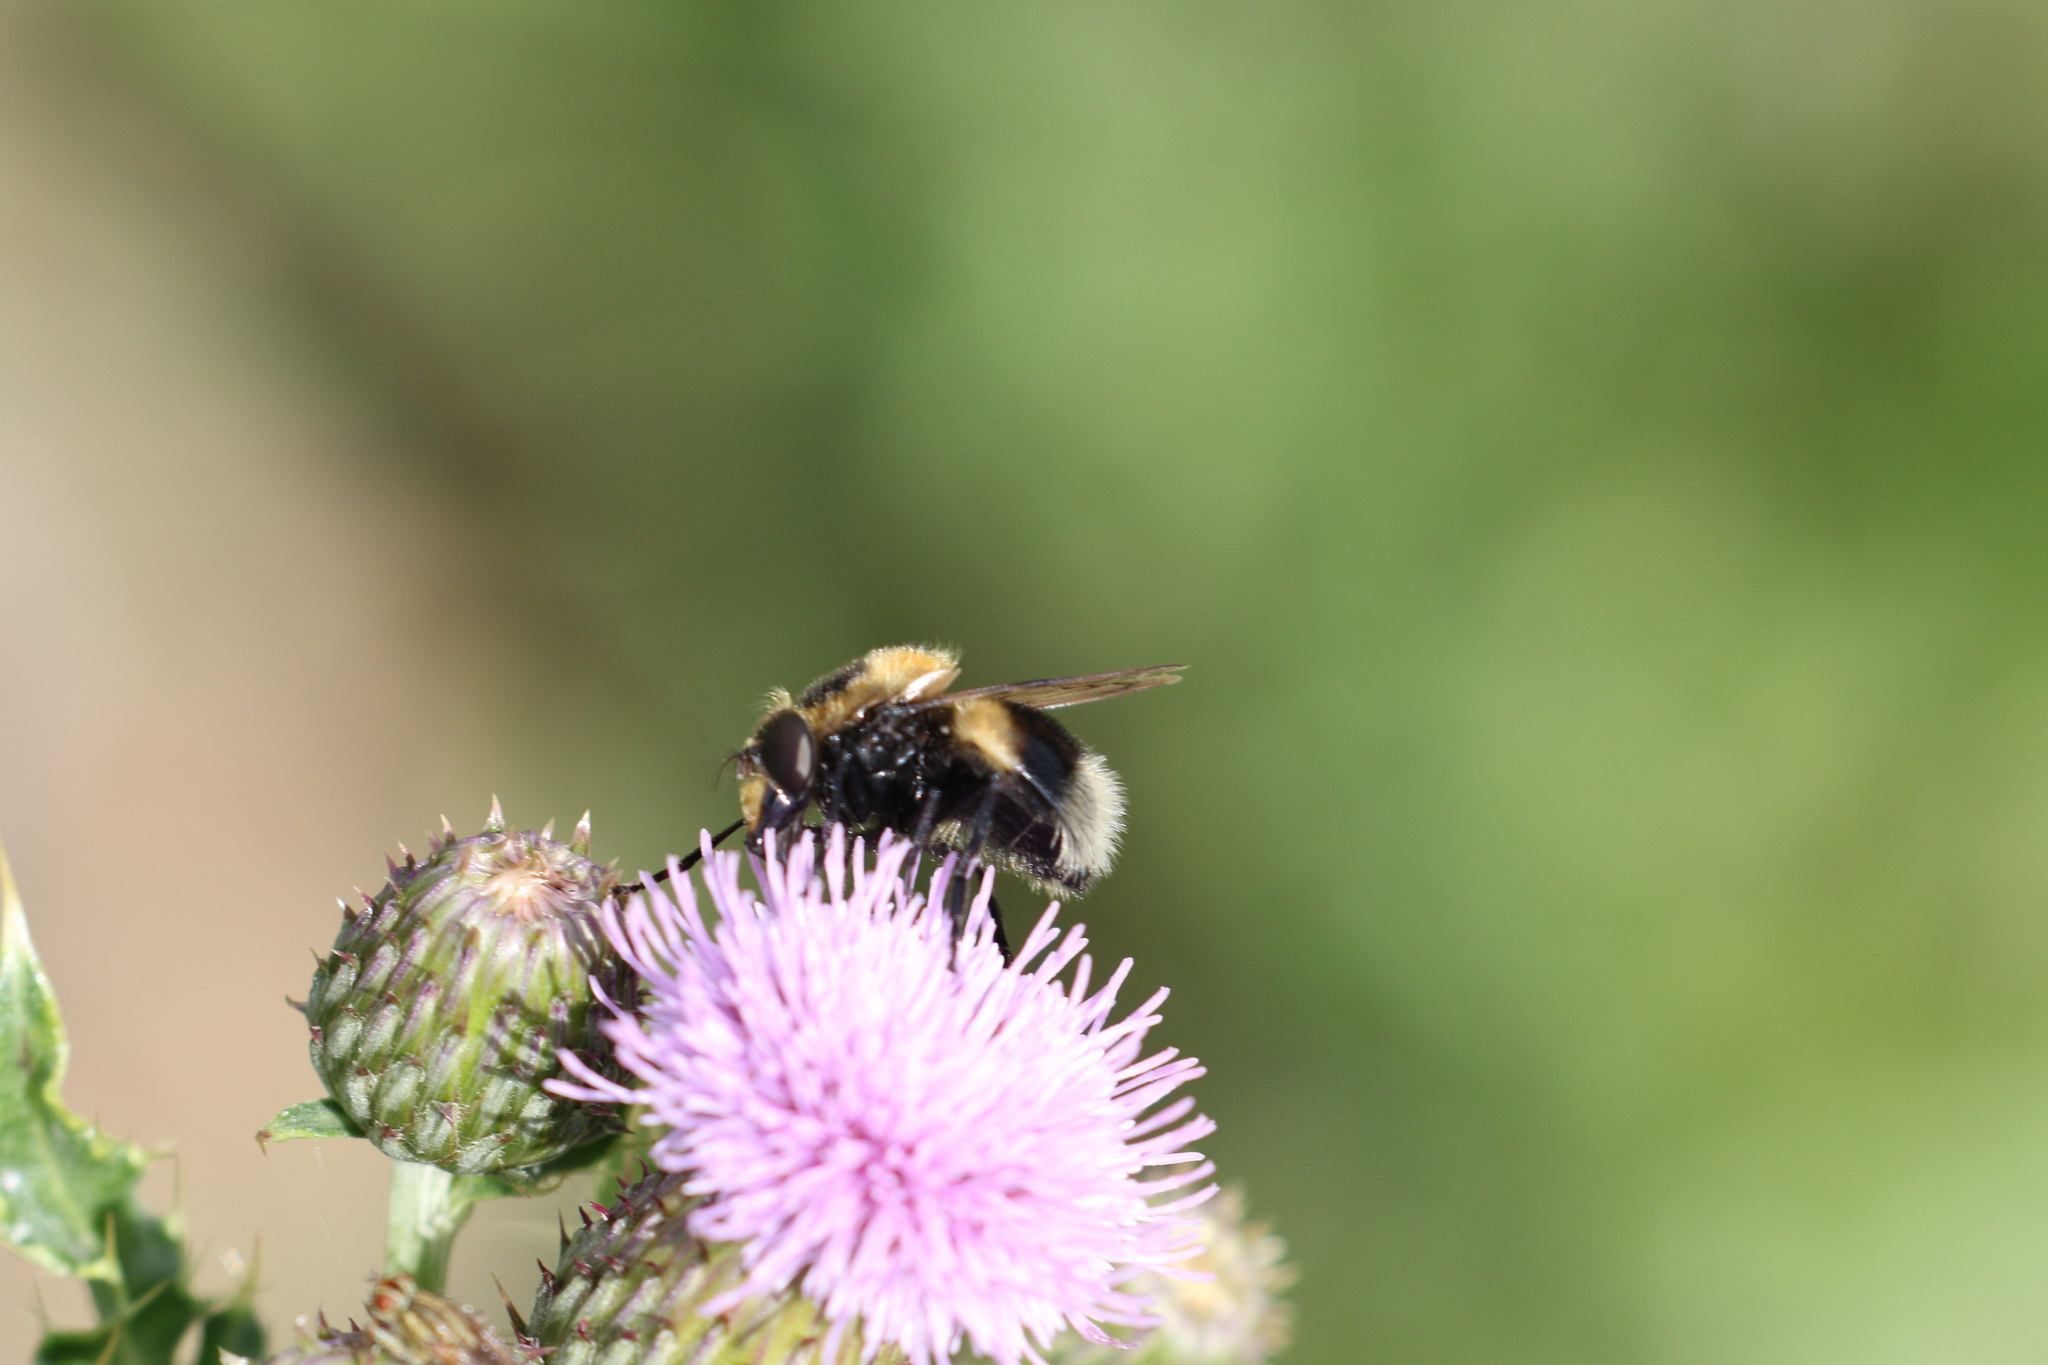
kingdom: Animalia
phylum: Arthropoda
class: Insecta
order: Diptera
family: Syrphidae
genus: Volucella
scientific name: Volucella bombylans
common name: Bumble bee hover fly
